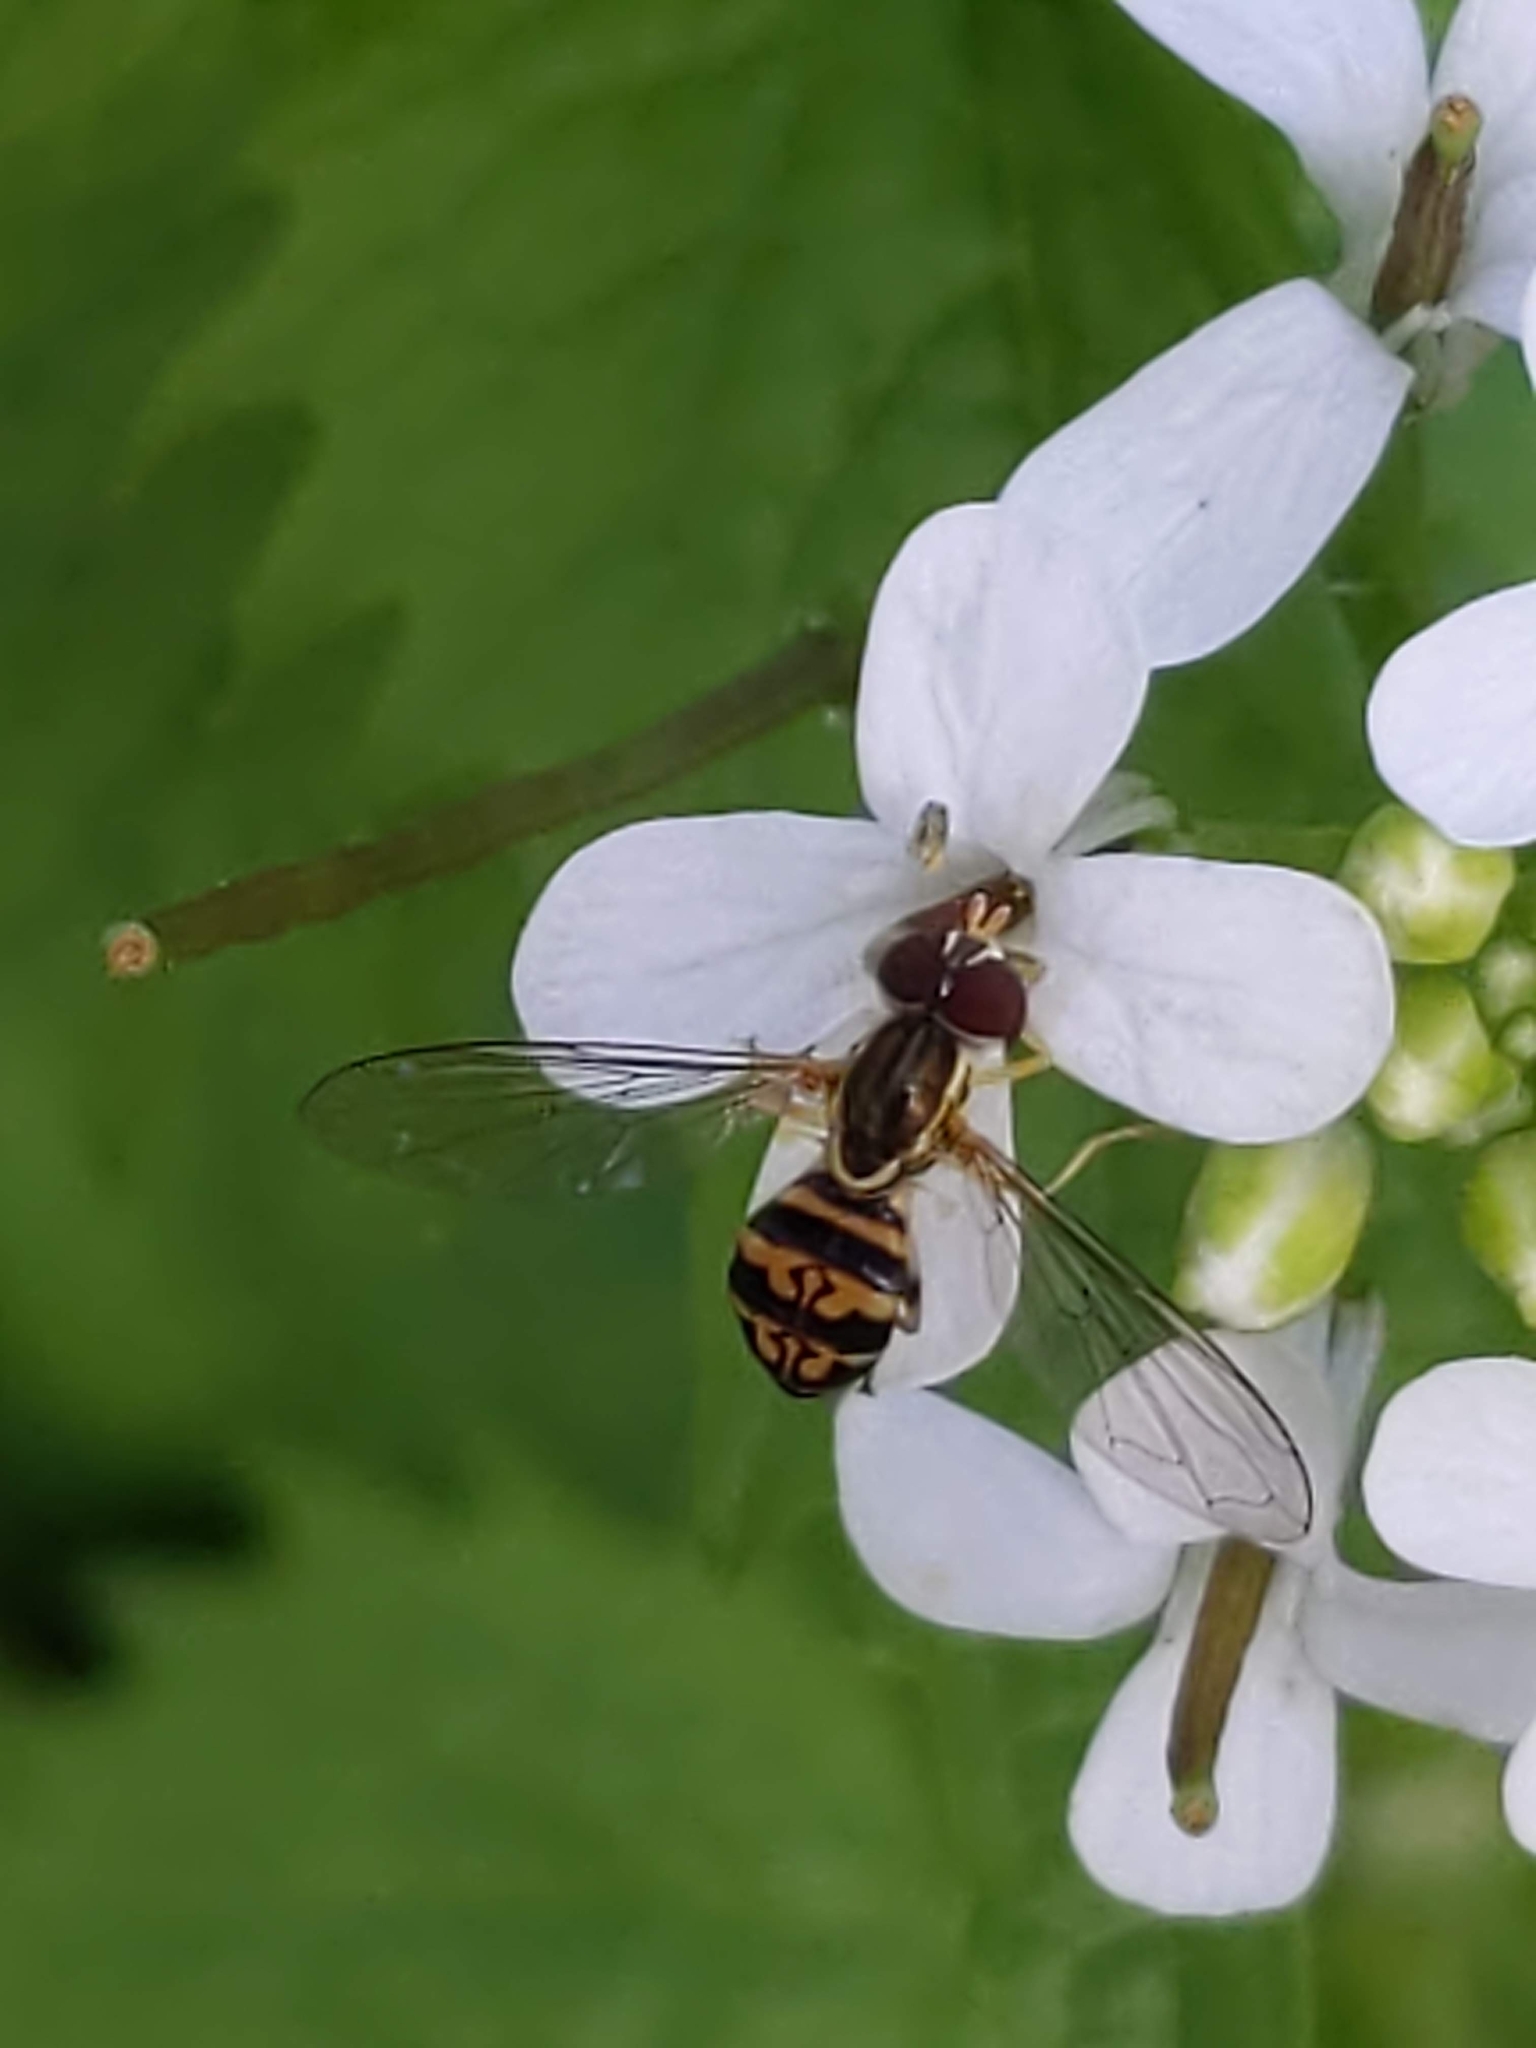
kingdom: Animalia
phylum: Arthropoda
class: Insecta
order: Diptera
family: Syrphidae
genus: Toxomerus
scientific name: Toxomerus geminatus
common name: Eastern calligrapher
